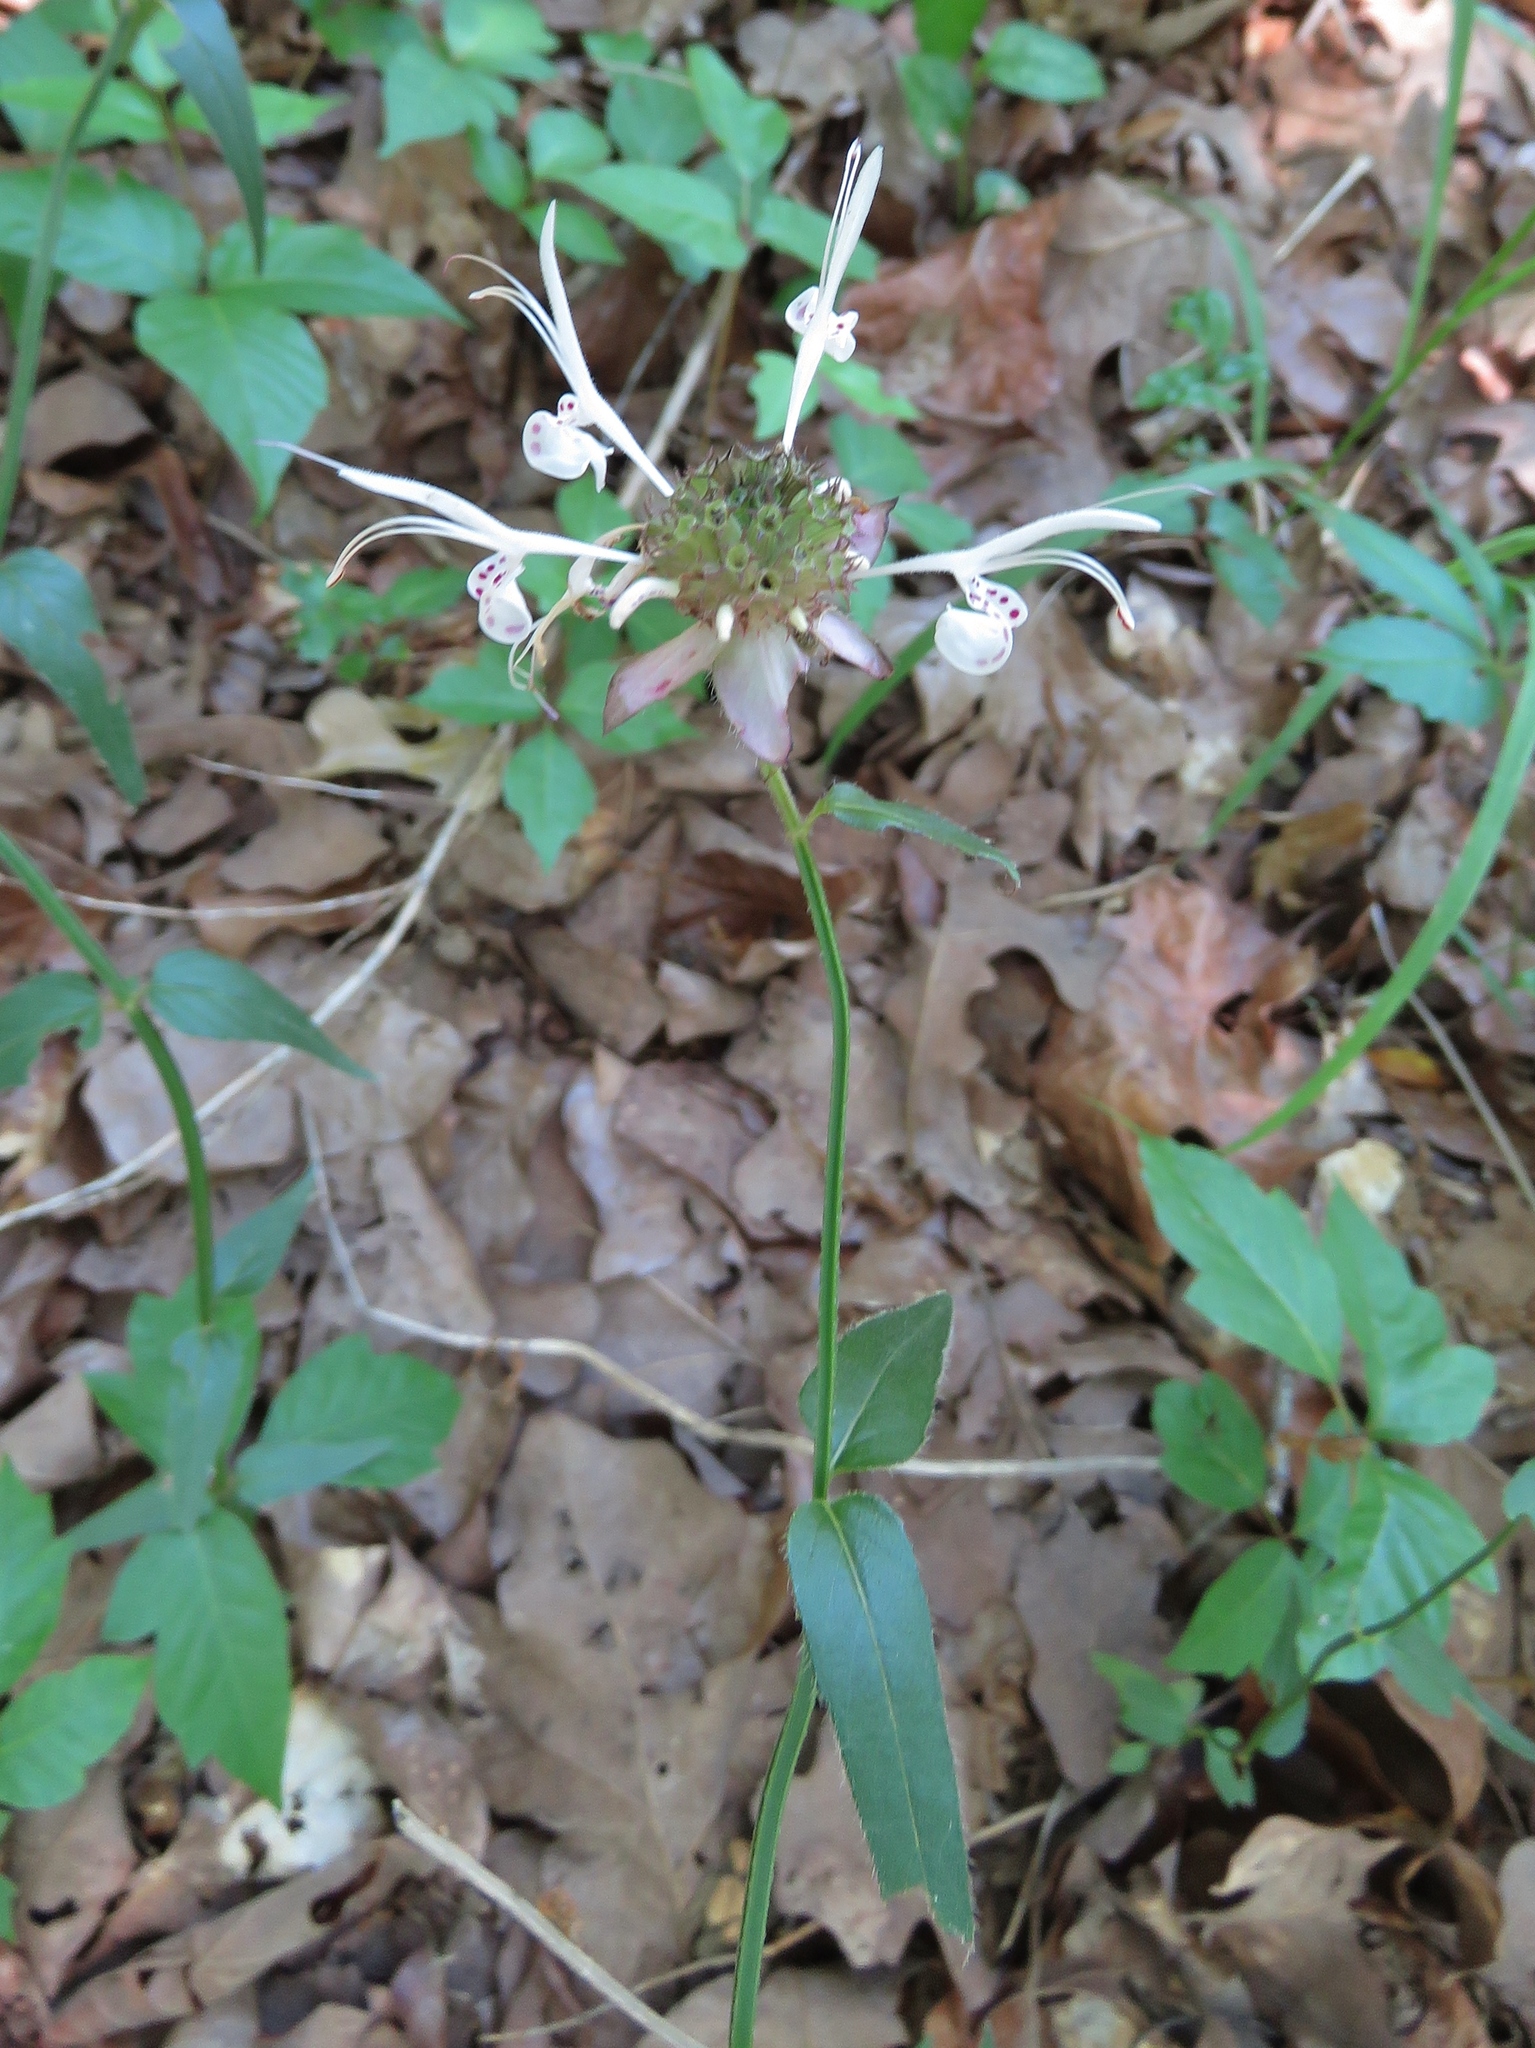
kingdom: Plantae
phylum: Tracheophyta
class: Magnoliopsida
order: Lamiales
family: Lamiaceae
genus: Monarda
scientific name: Monarda russeliana
